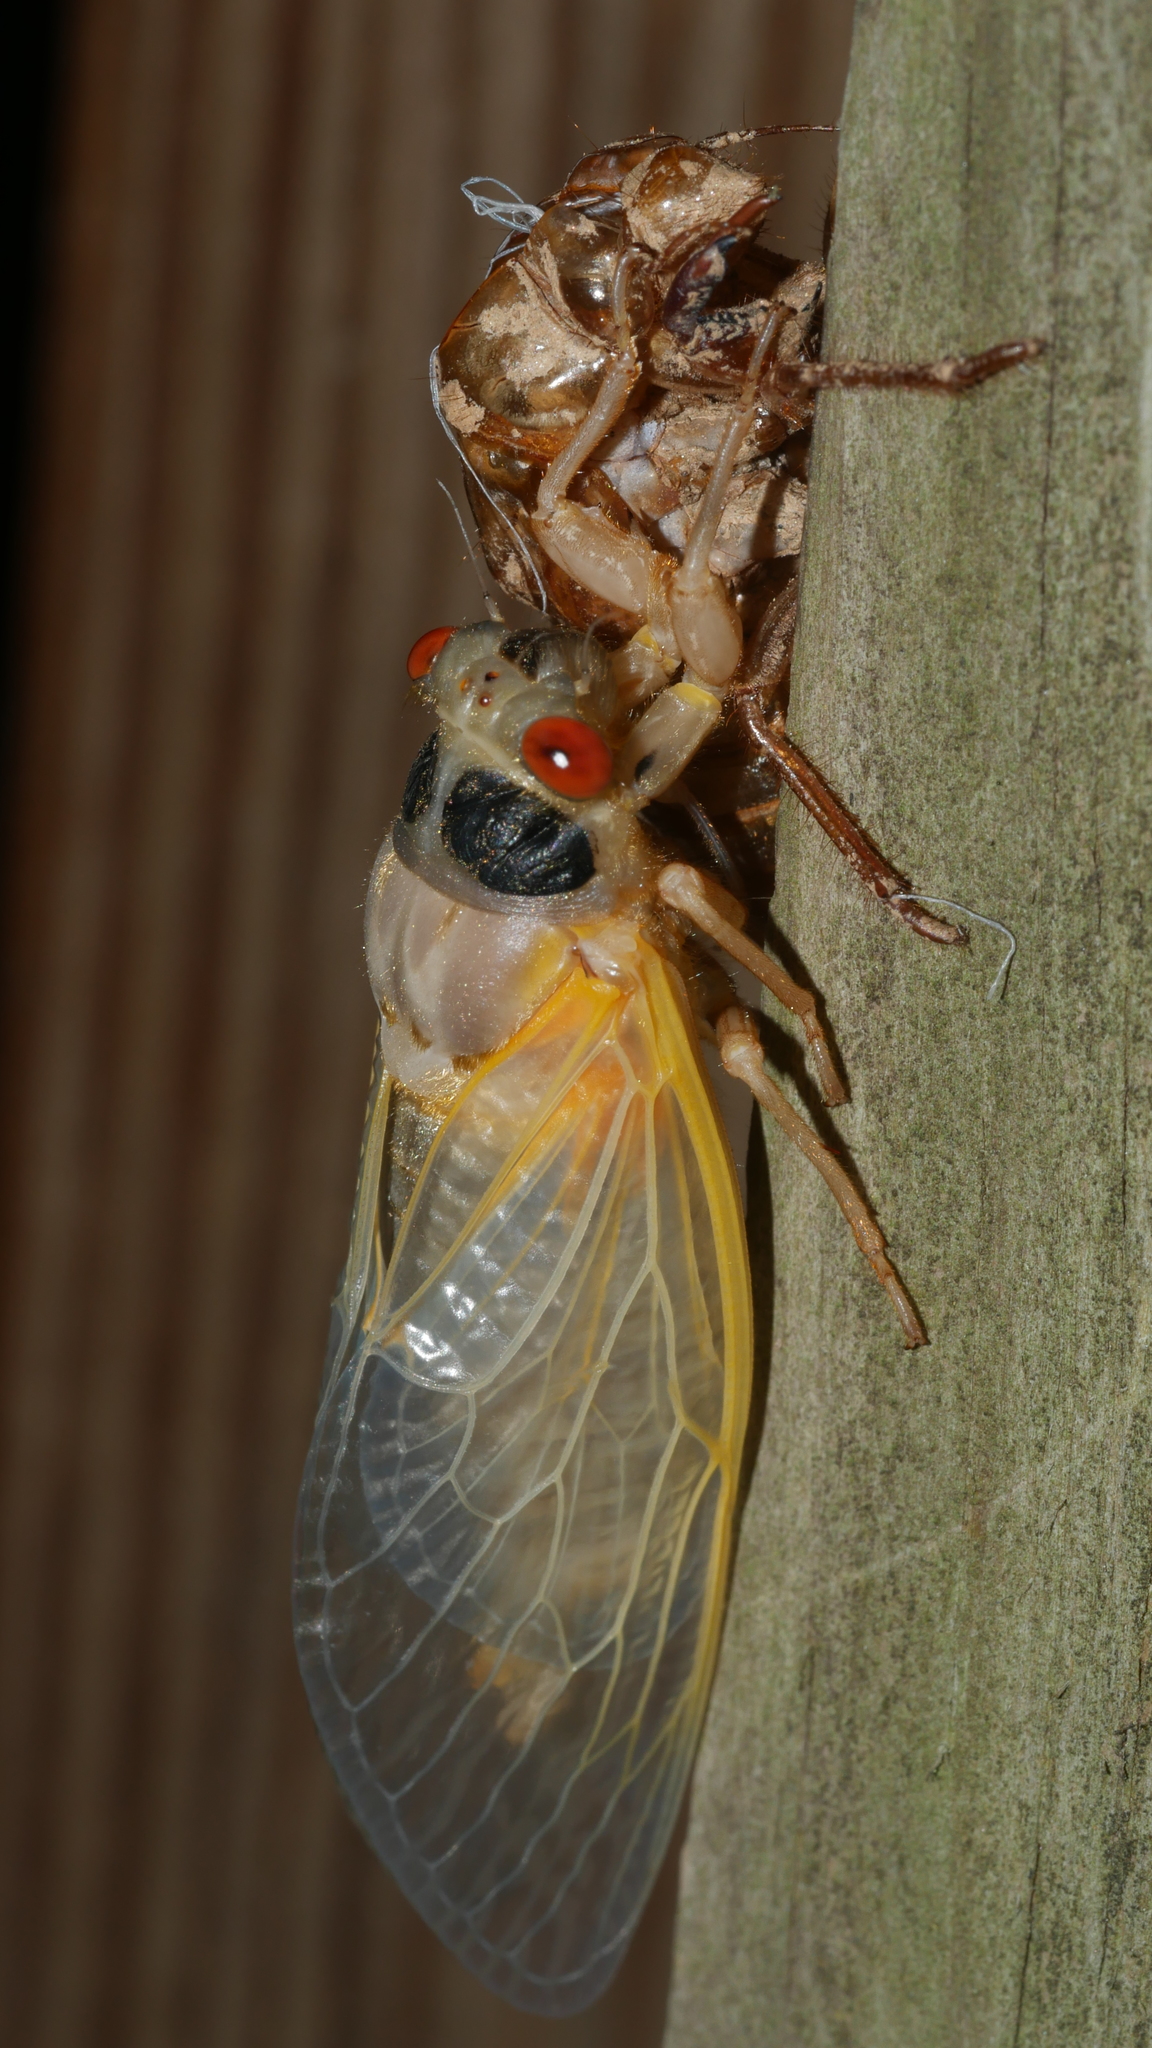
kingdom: Animalia
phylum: Arthropoda
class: Insecta
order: Hemiptera
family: Cicadidae
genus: Magicicada
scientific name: Magicicada
